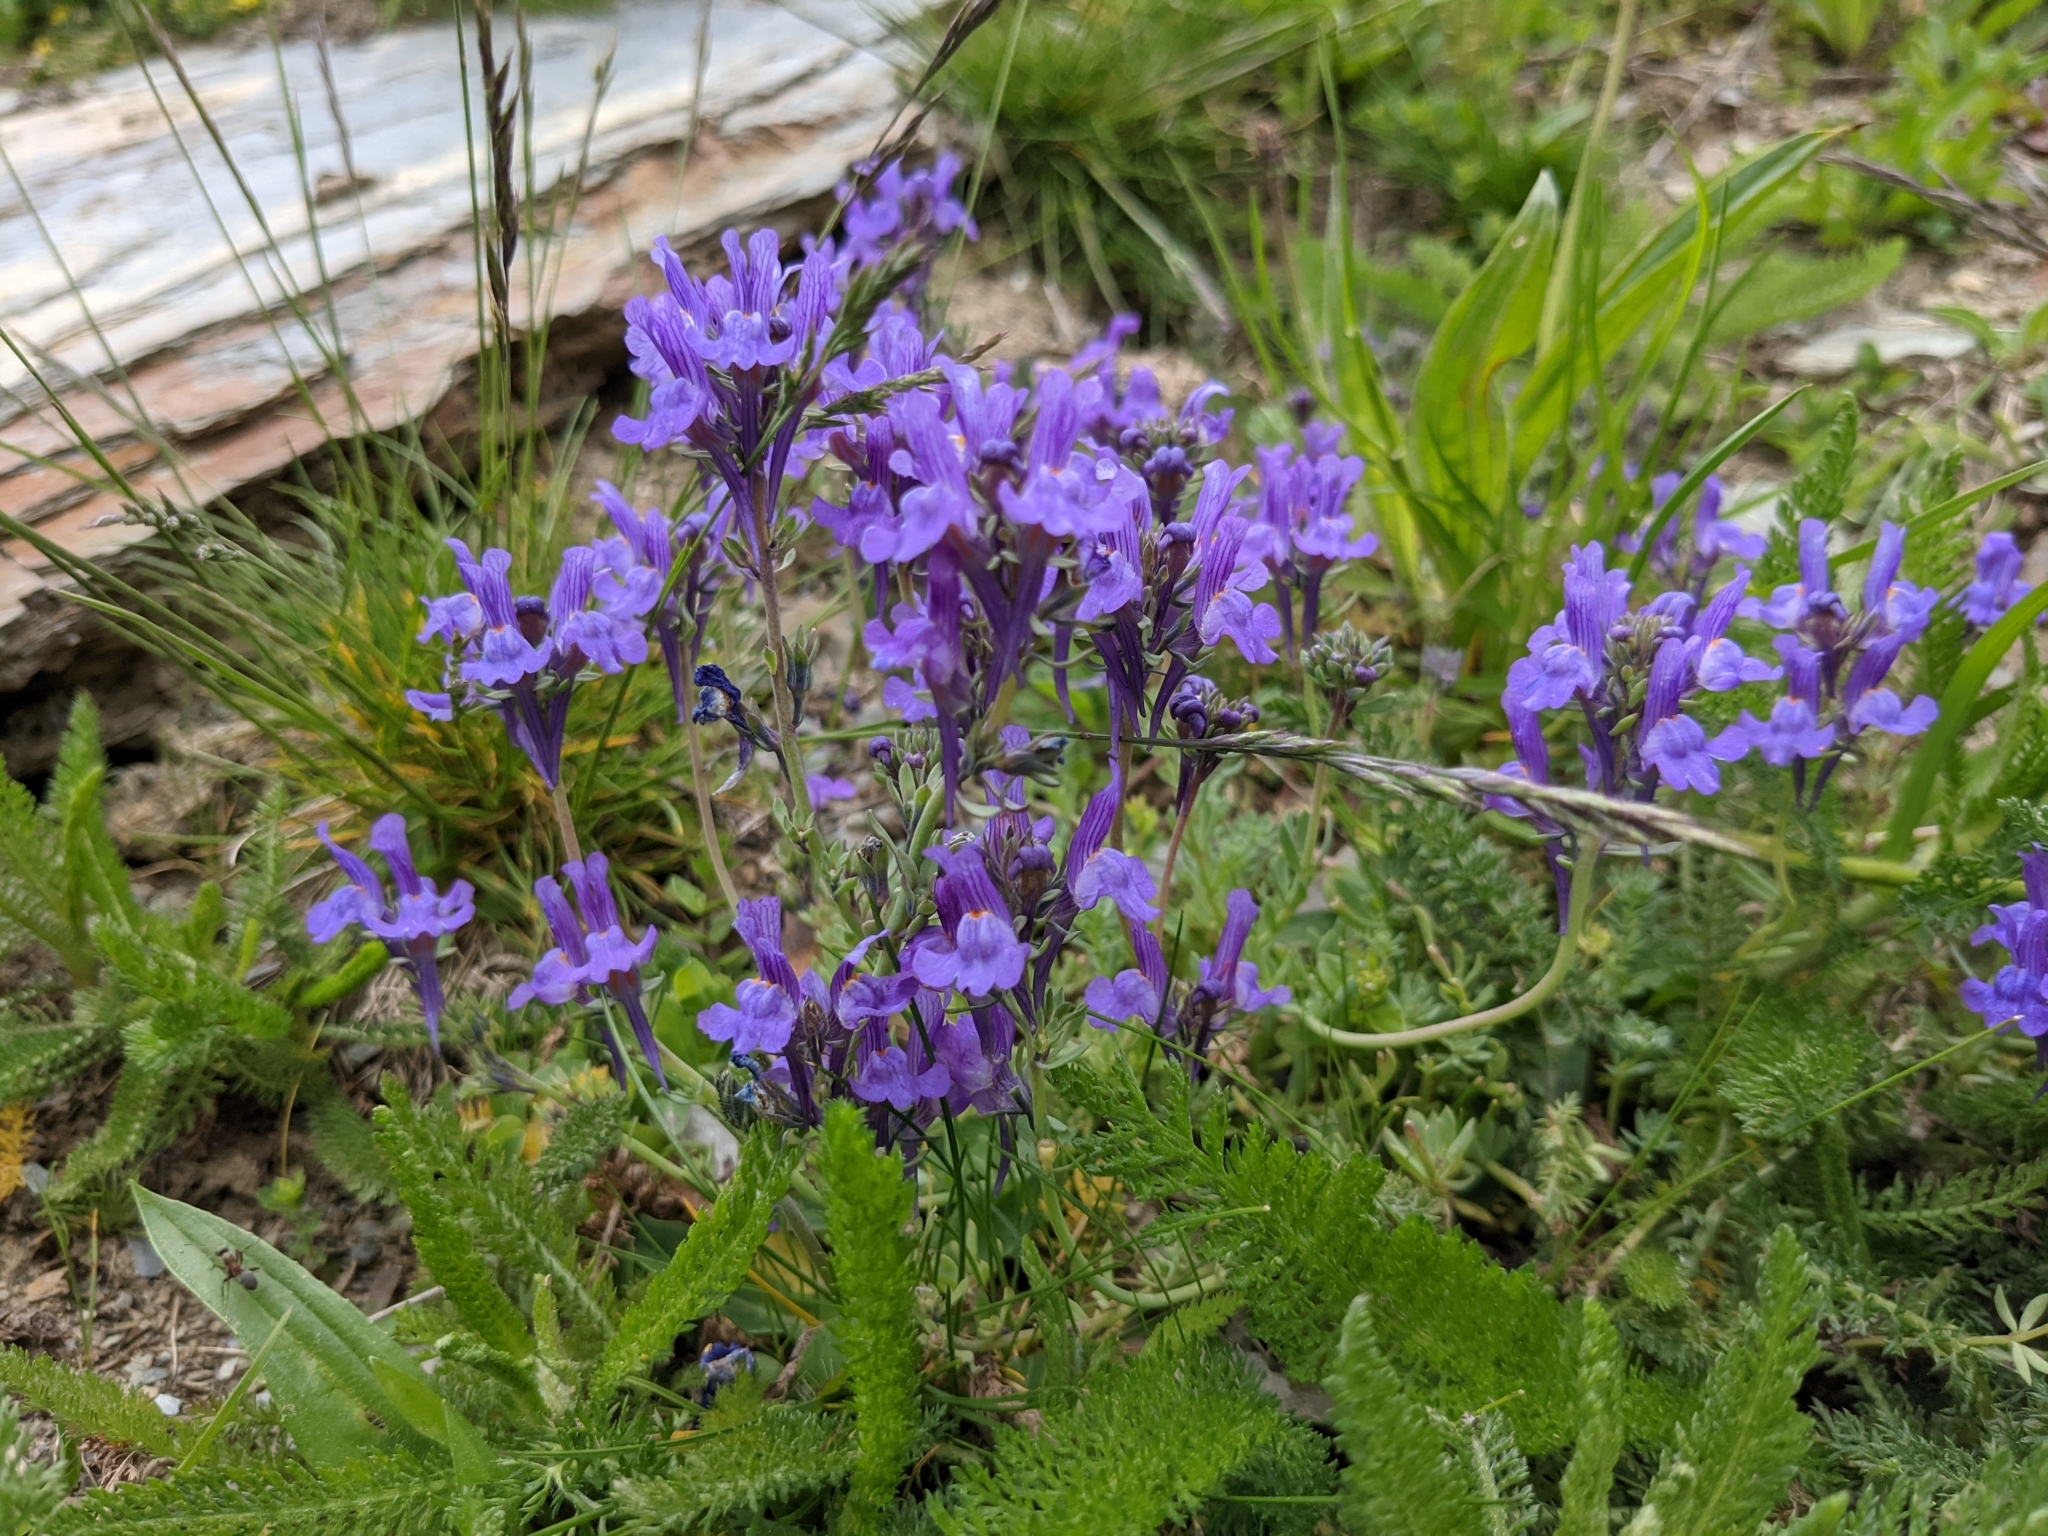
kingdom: Plantae
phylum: Tracheophyta
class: Magnoliopsida
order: Lamiales
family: Plantaginaceae
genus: Linaria
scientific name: Linaria alpina
